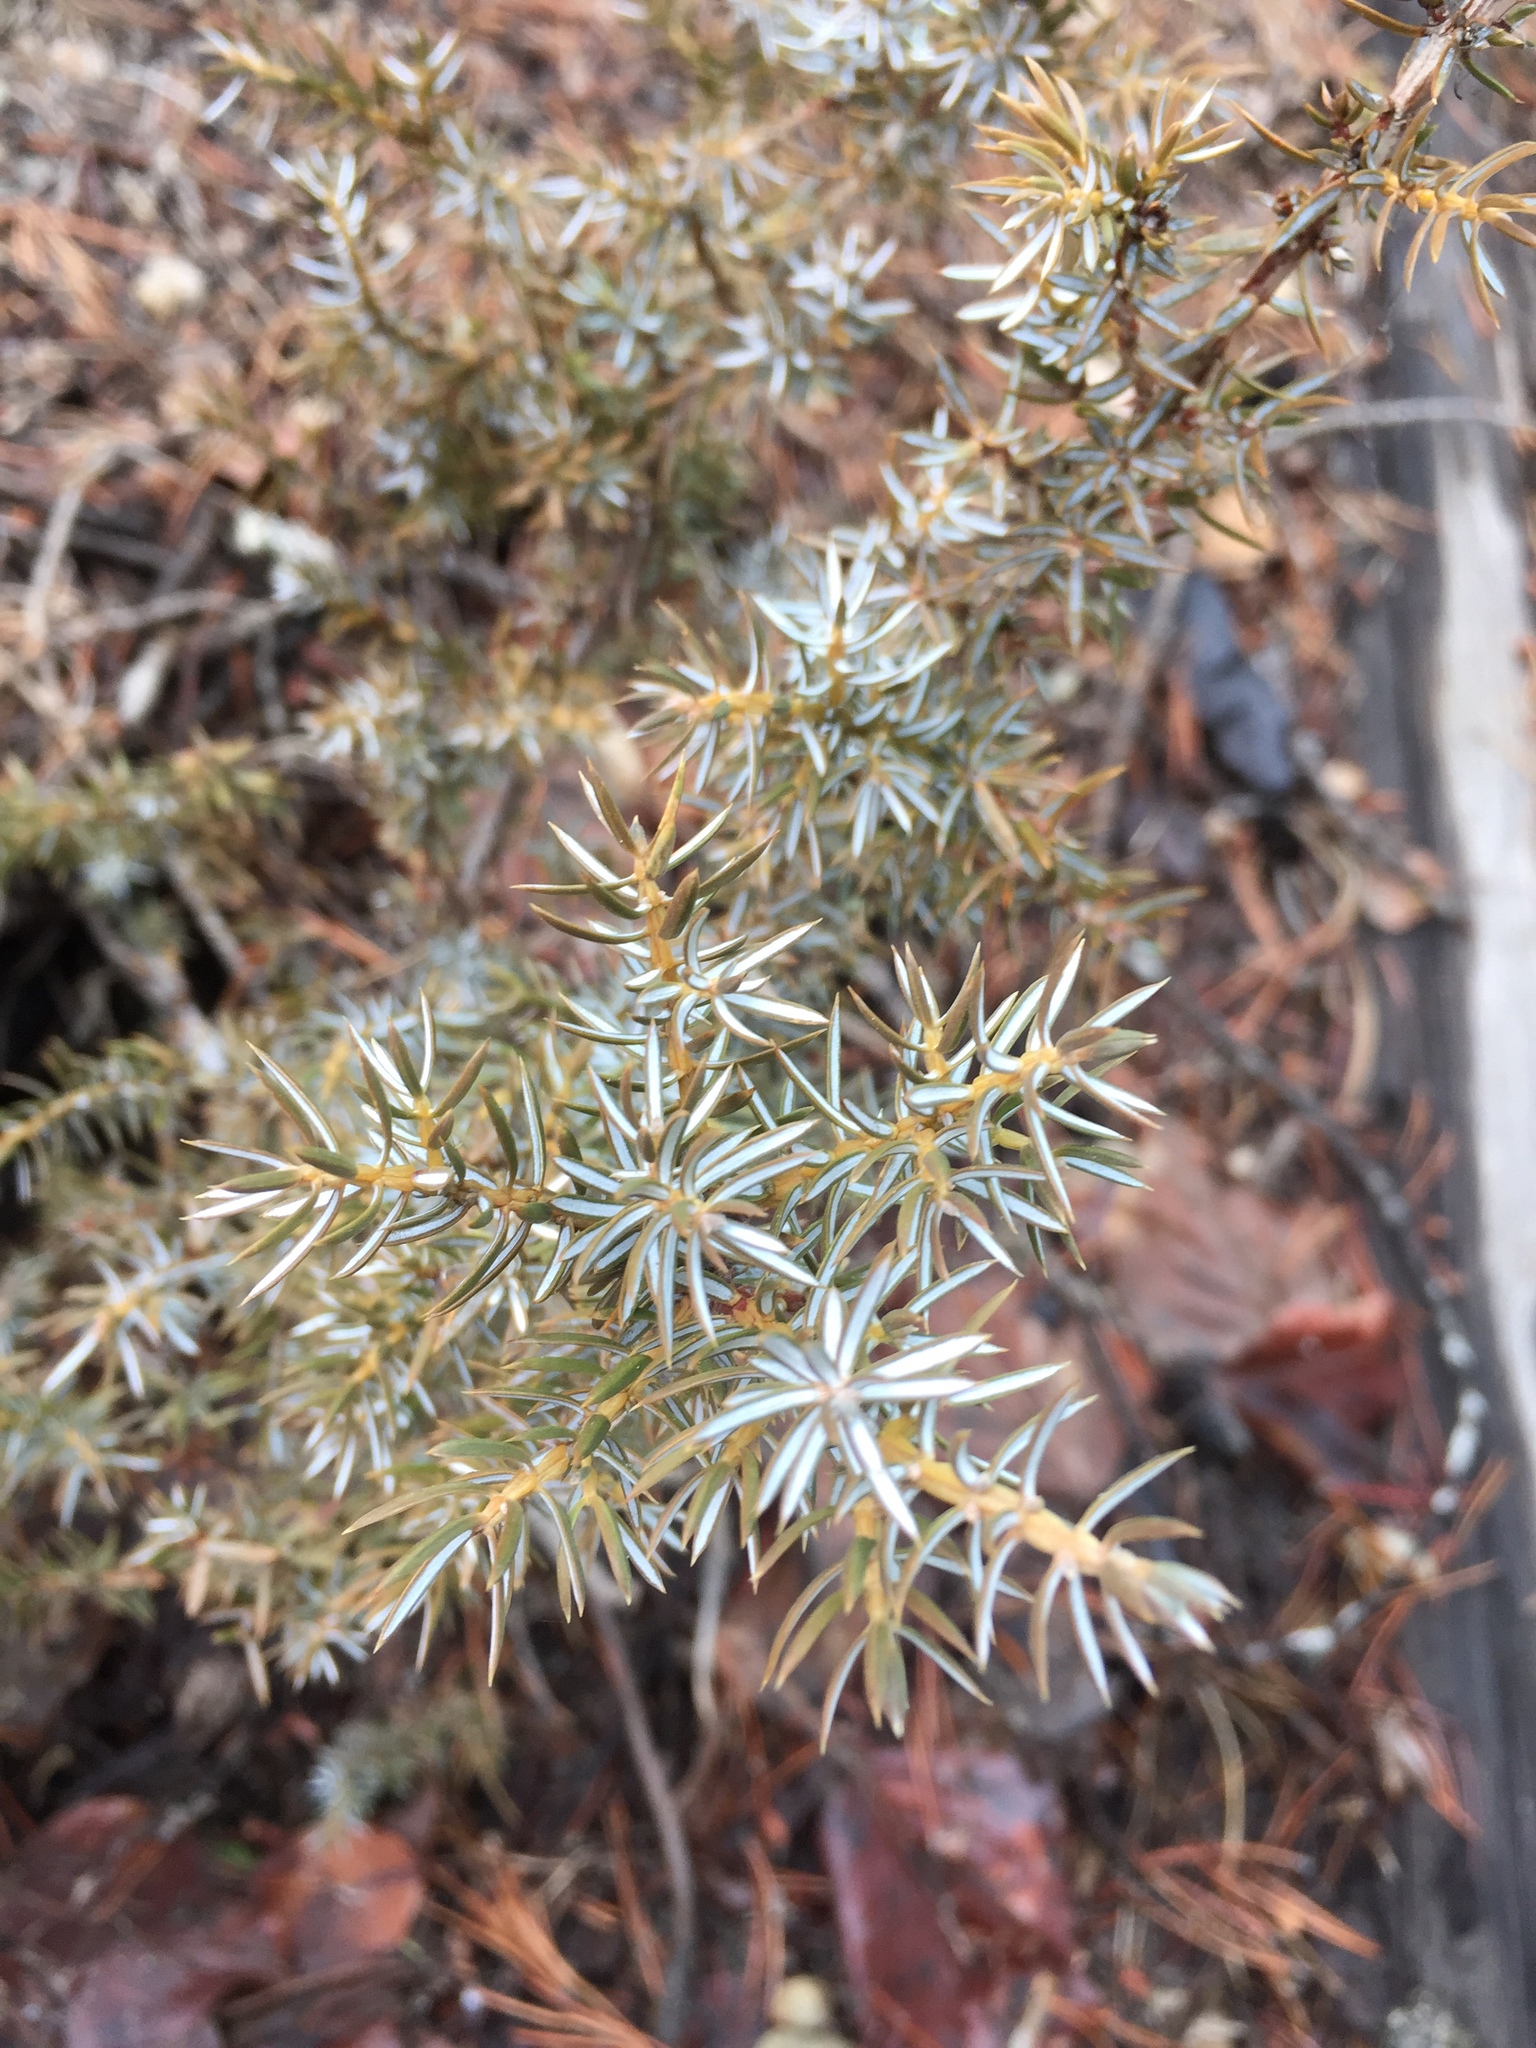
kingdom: Plantae
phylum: Tracheophyta
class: Pinopsida
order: Pinales
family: Cupressaceae
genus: Juniperus
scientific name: Juniperus communis
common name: Common juniper
